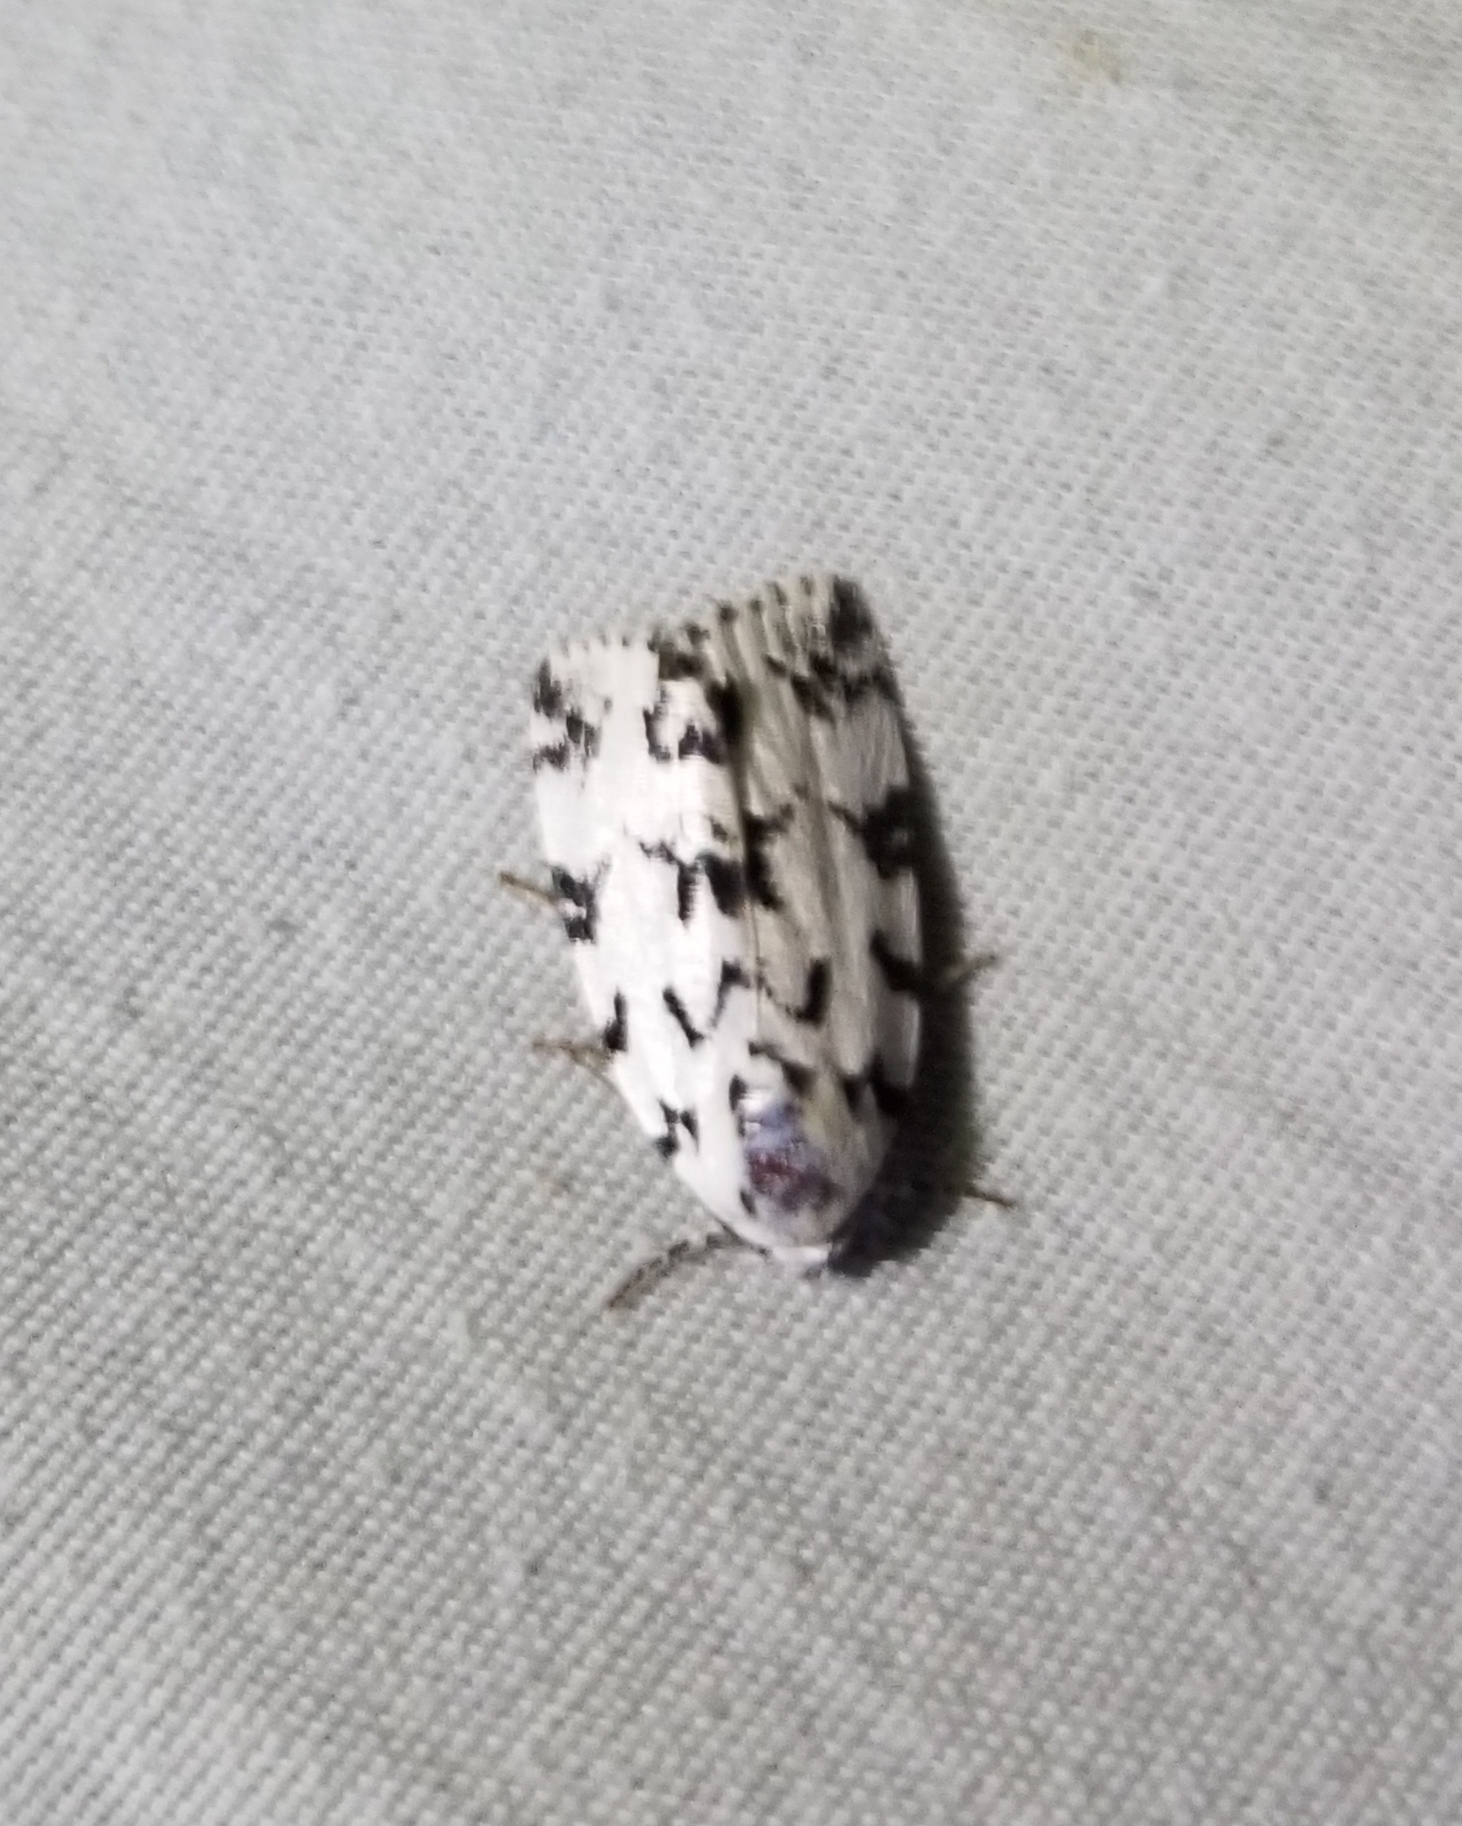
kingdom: Animalia
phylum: Arthropoda
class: Insecta
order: Lepidoptera
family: Noctuidae
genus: Polygrammate
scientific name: Polygrammate hebraeicum
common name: Hebrew moth
